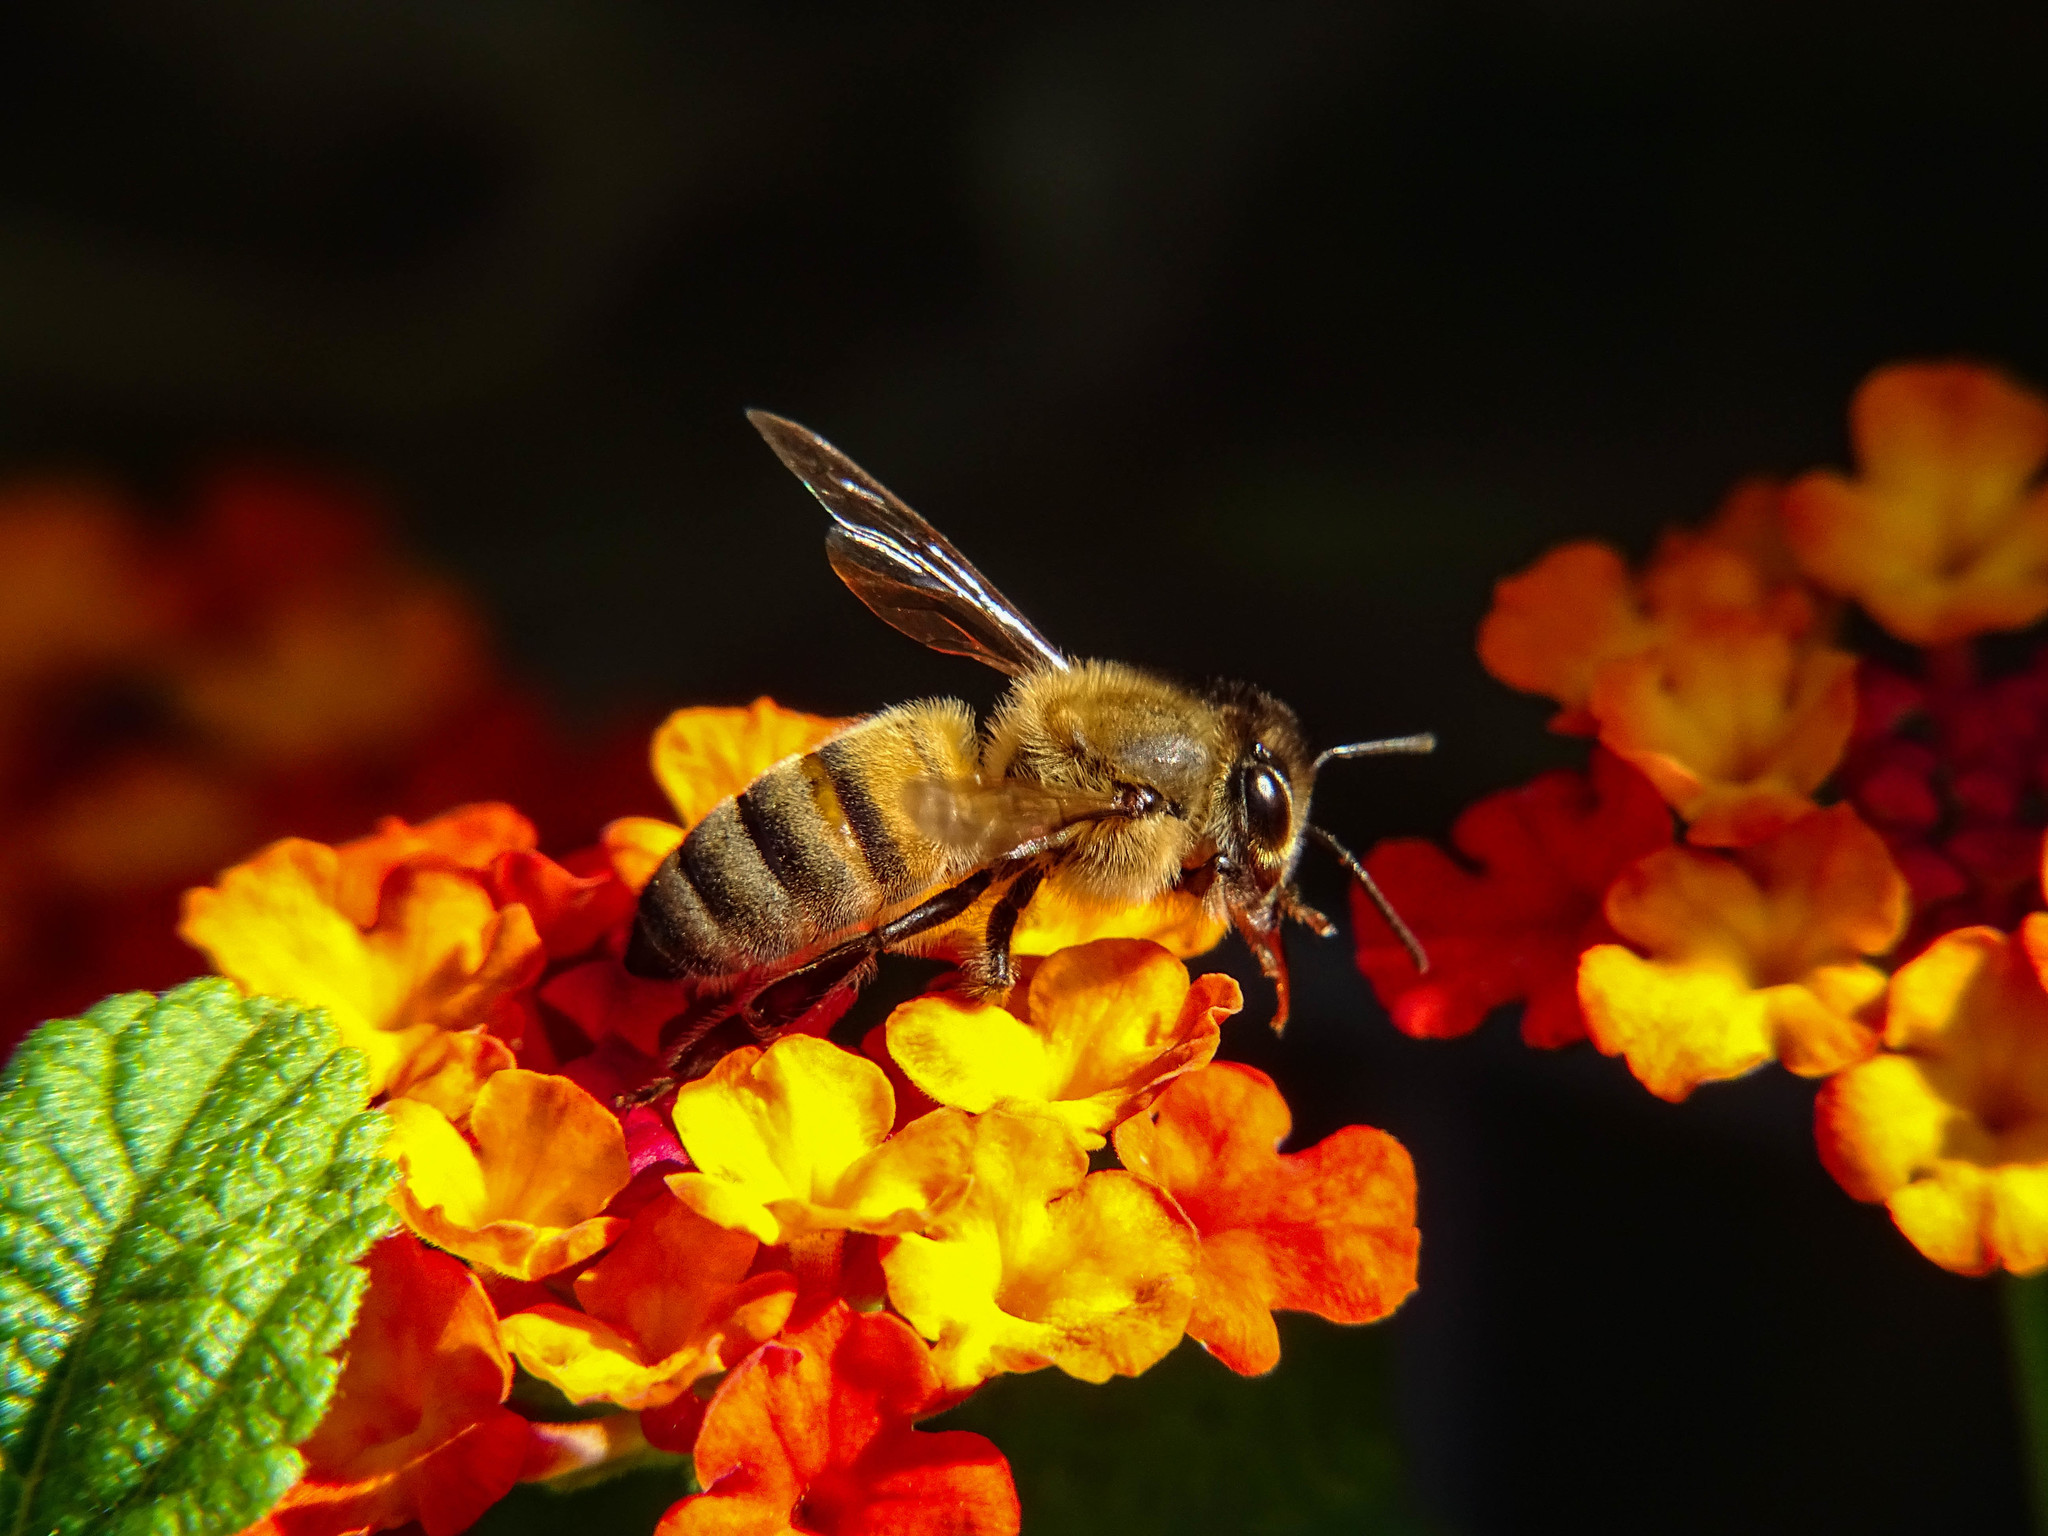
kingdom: Animalia
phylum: Arthropoda
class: Insecta
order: Hymenoptera
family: Apidae
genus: Apis
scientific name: Apis mellifera
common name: Honey bee
